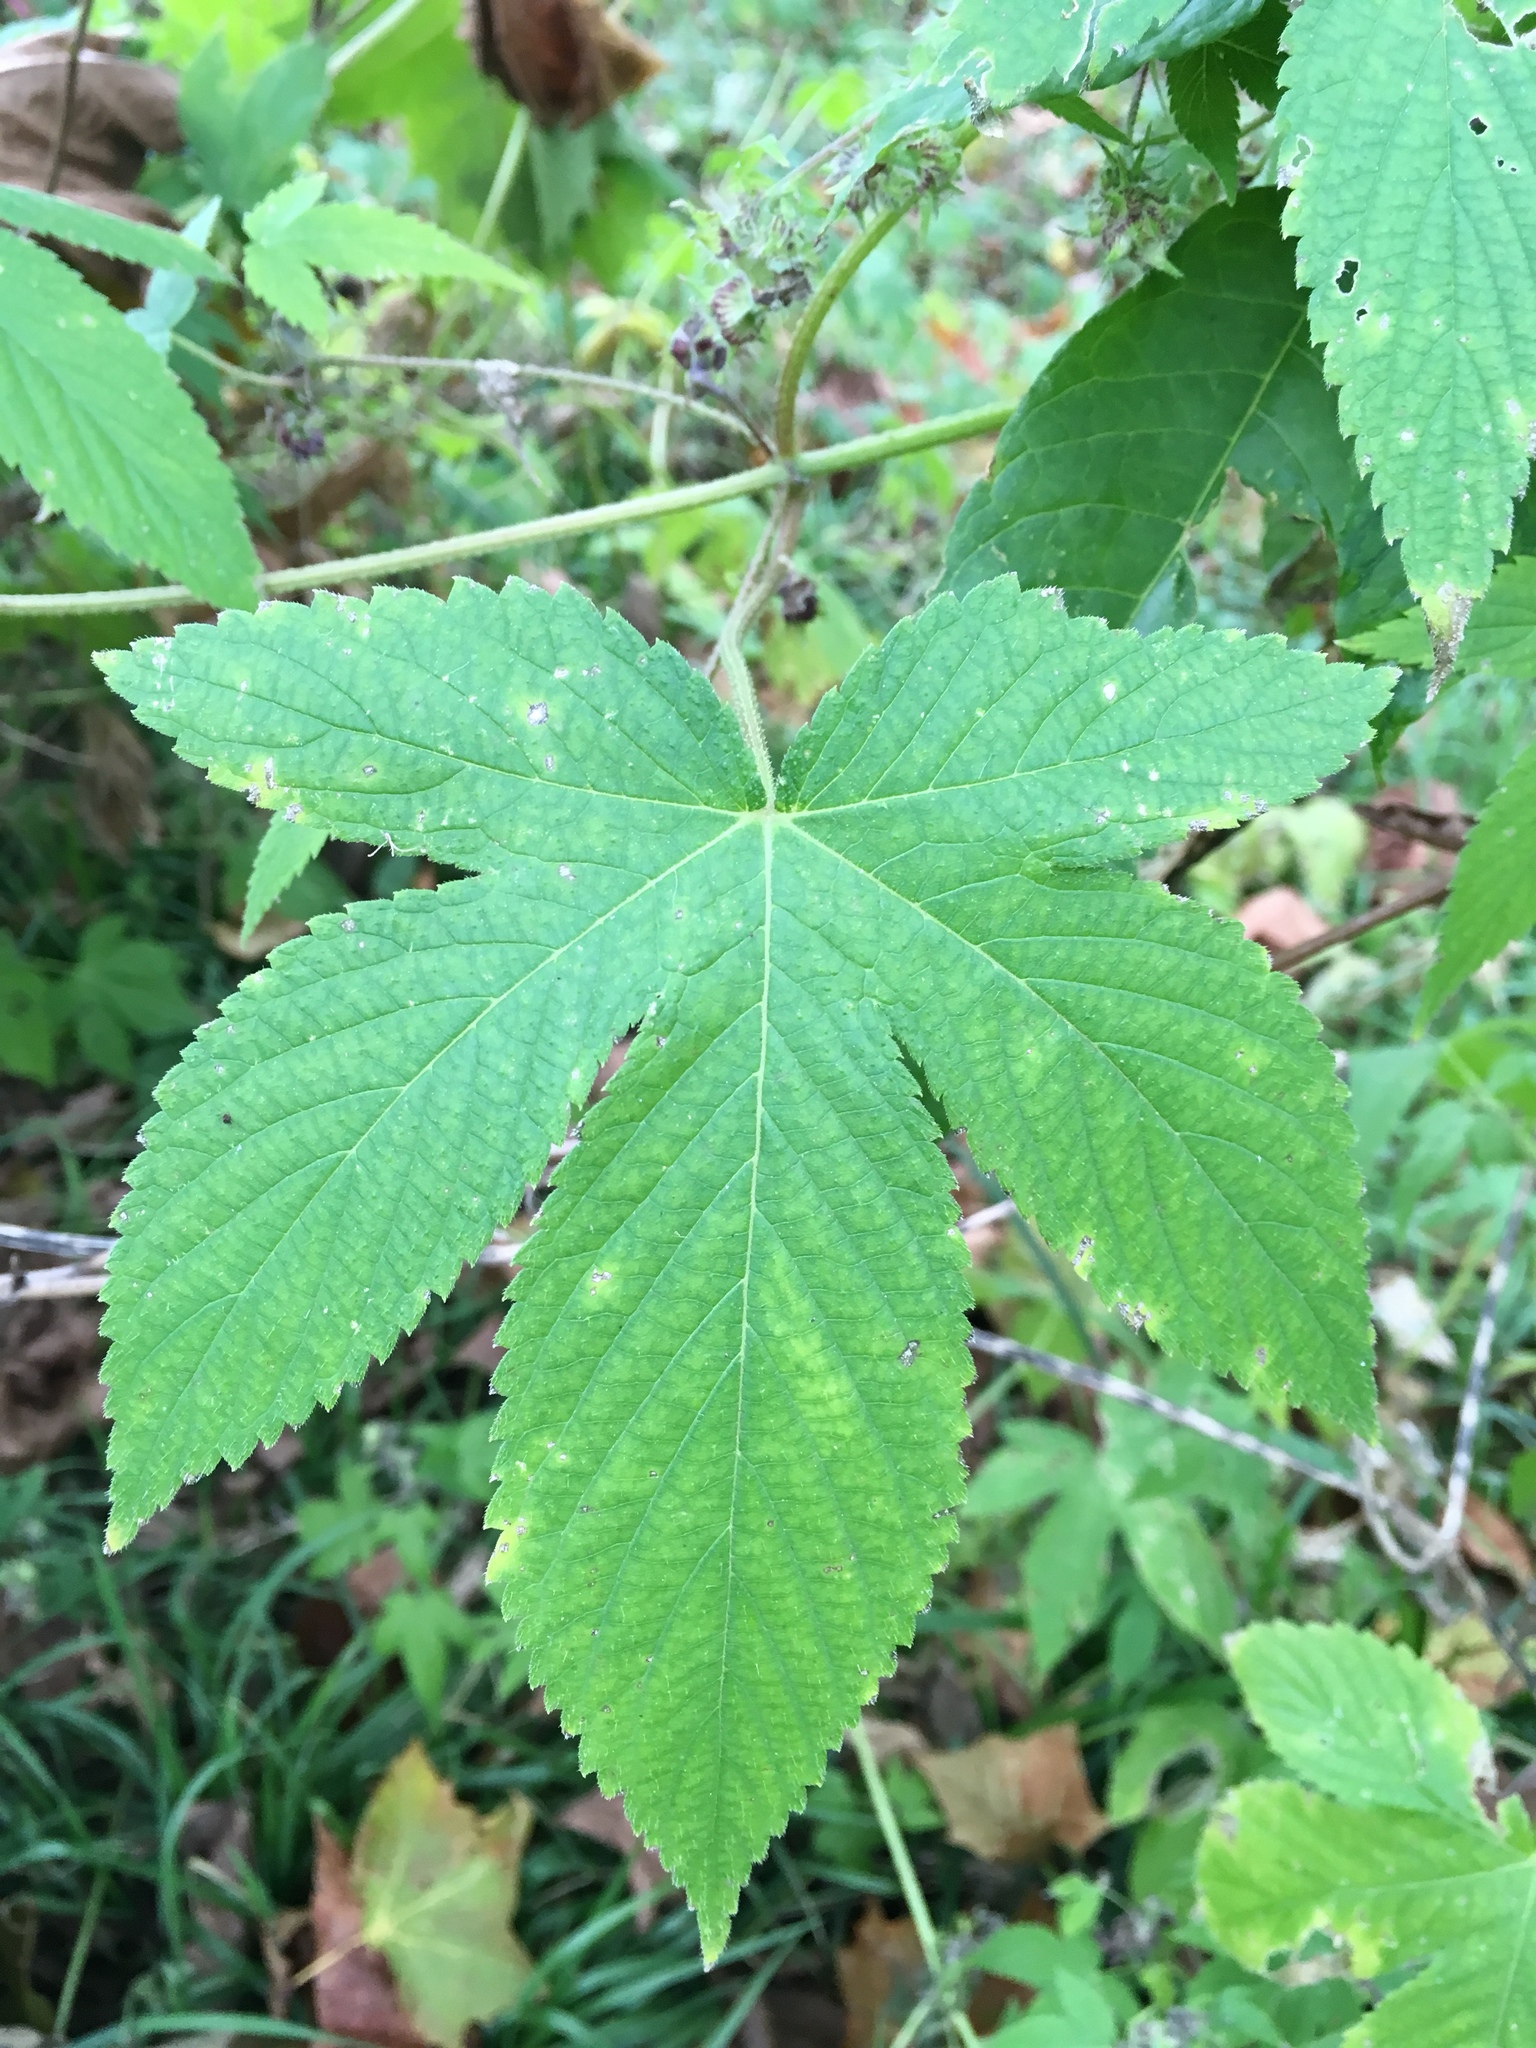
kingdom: Plantae
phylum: Tracheophyta
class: Magnoliopsida
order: Rosales
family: Cannabaceae
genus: Humulus
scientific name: Humulus scandens
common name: Japanese hop
